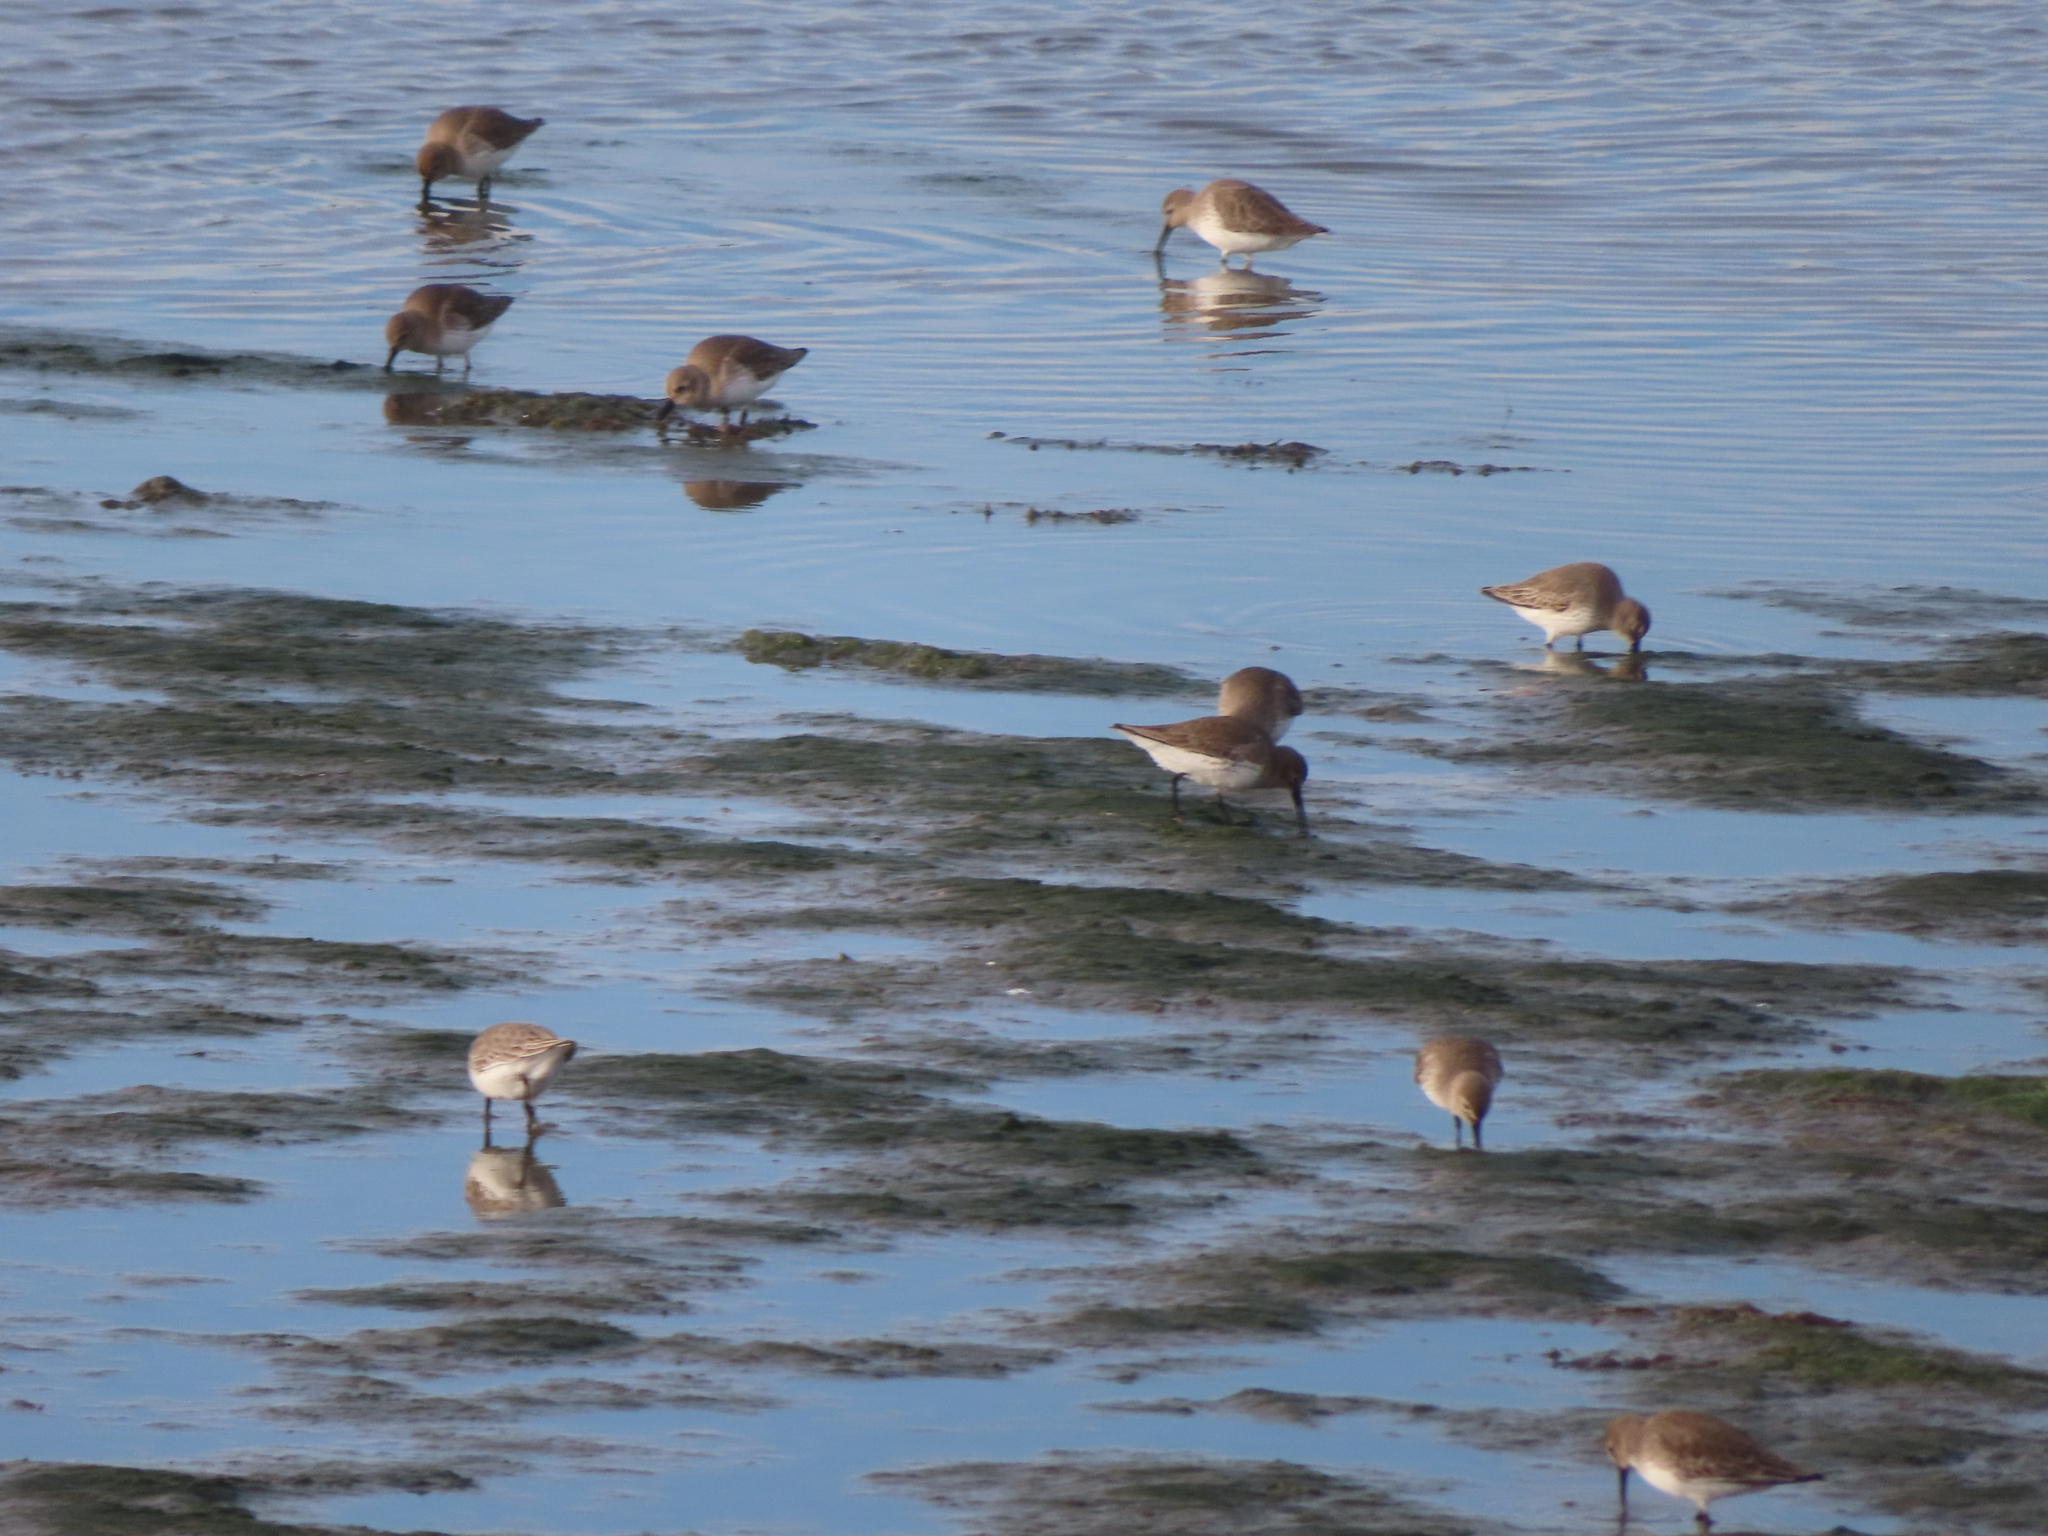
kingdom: Animalia
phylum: Chordata
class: Aves
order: Charadriiformes
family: Scolopacidae
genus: Calidris
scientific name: Calidris alpina
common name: Dunlin
